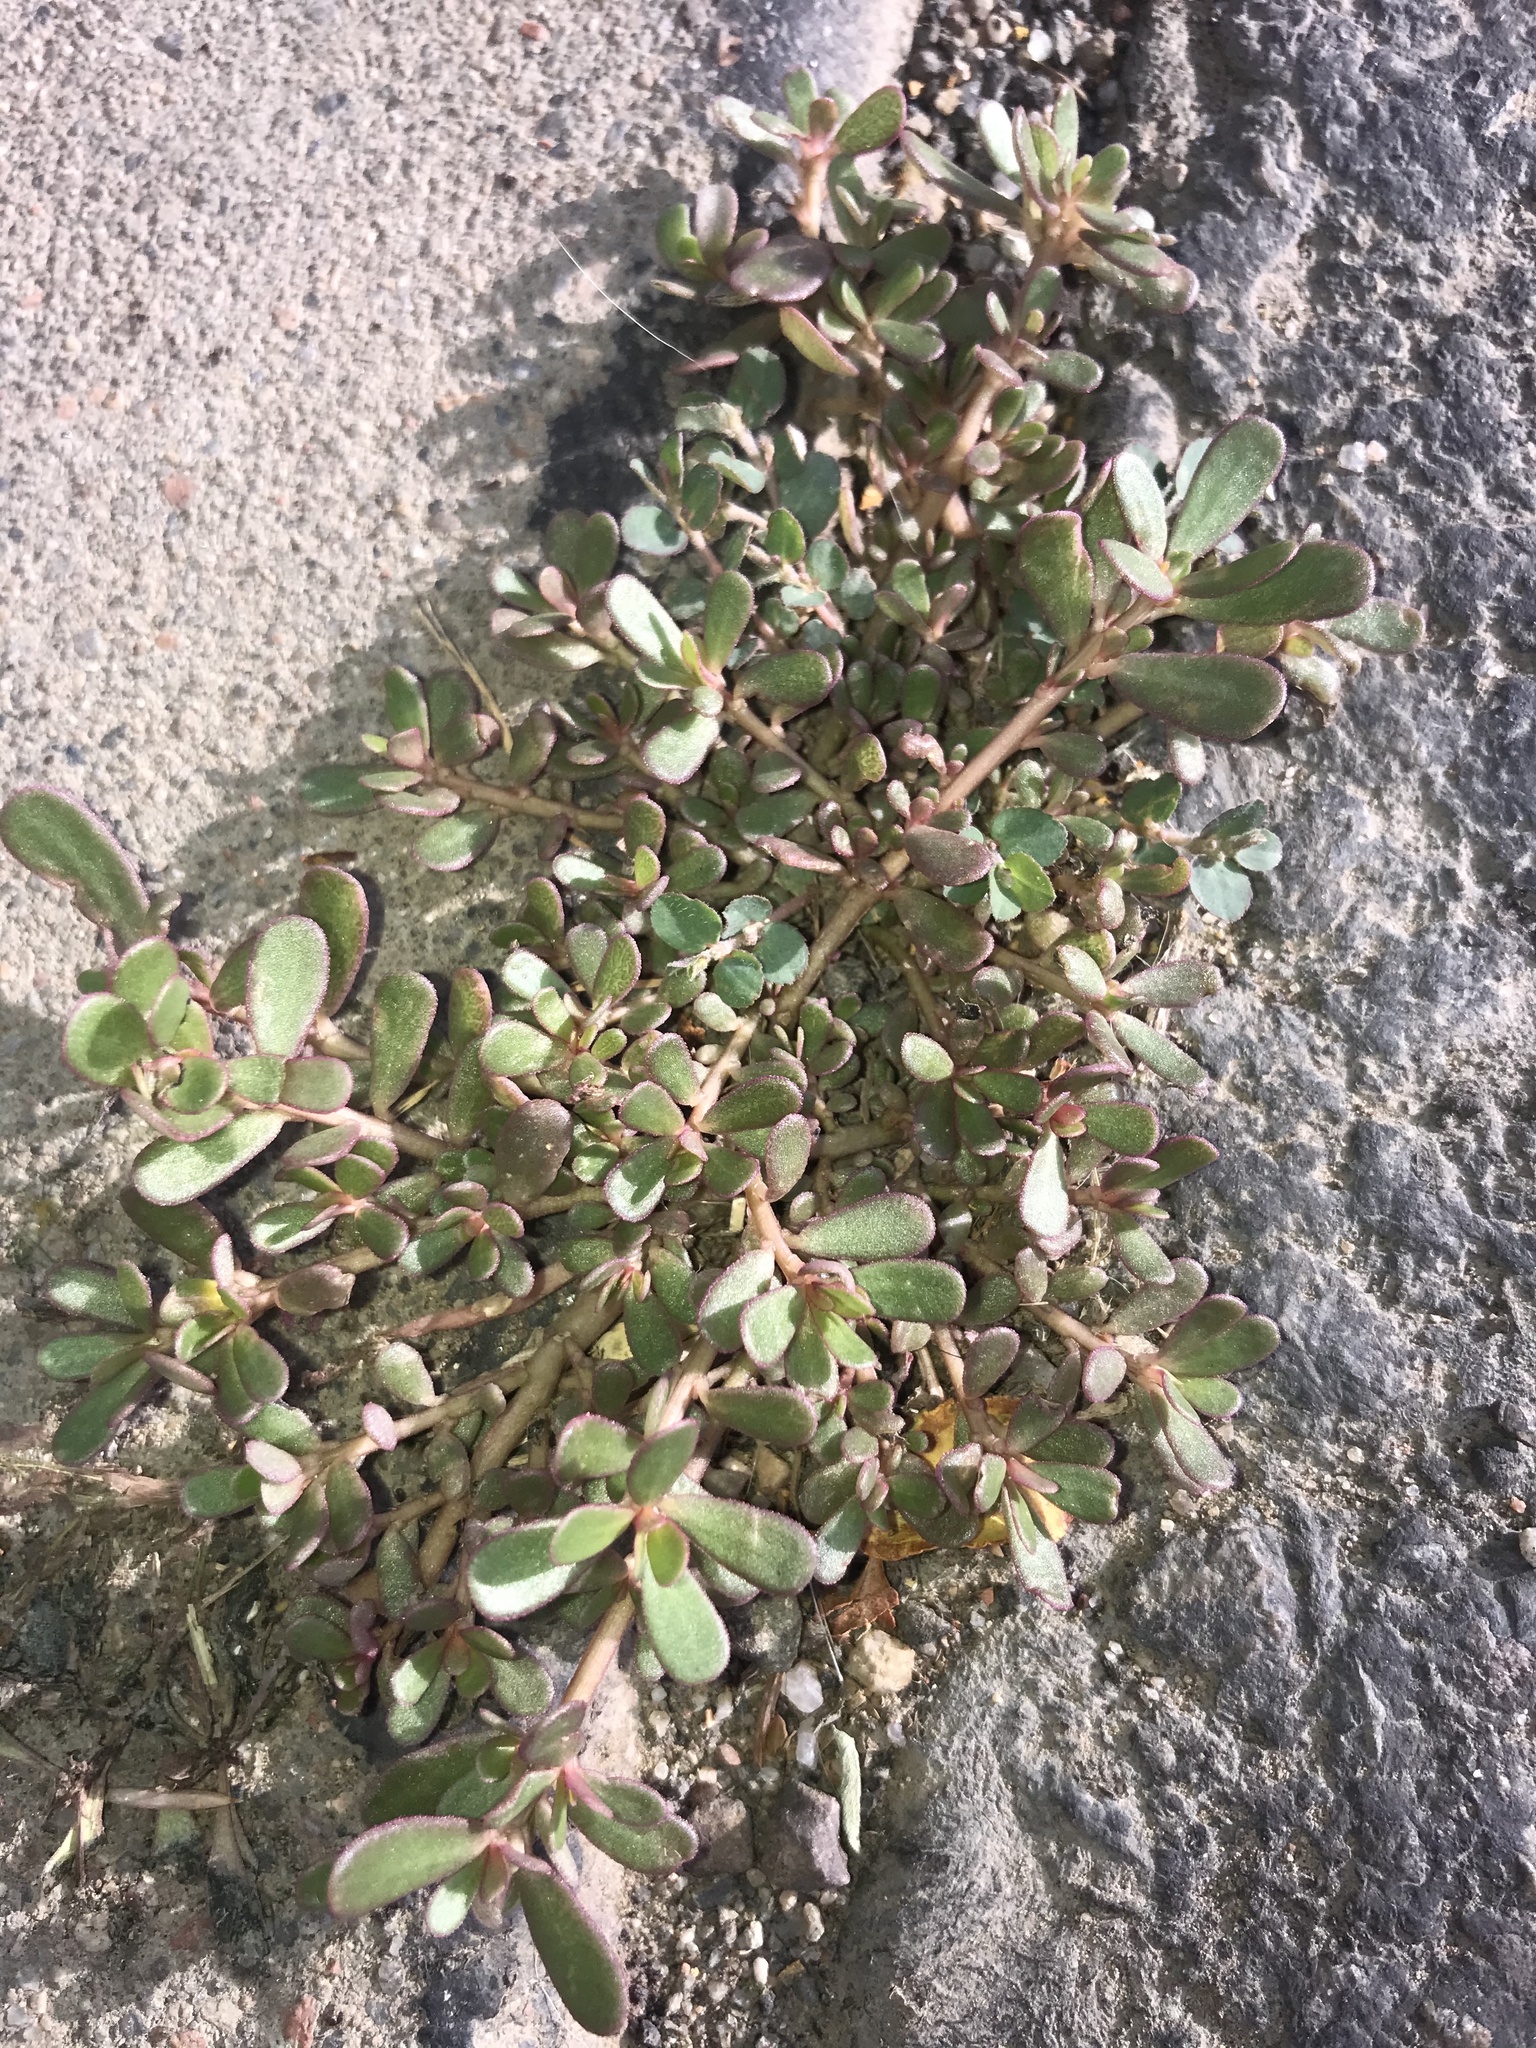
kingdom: Plantae
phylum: Tracheophyta
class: Magnoliopsida
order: Caryophyllales
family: Portulacaceae
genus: Portulaca
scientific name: Portulaca oleracea
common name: Common purslane
